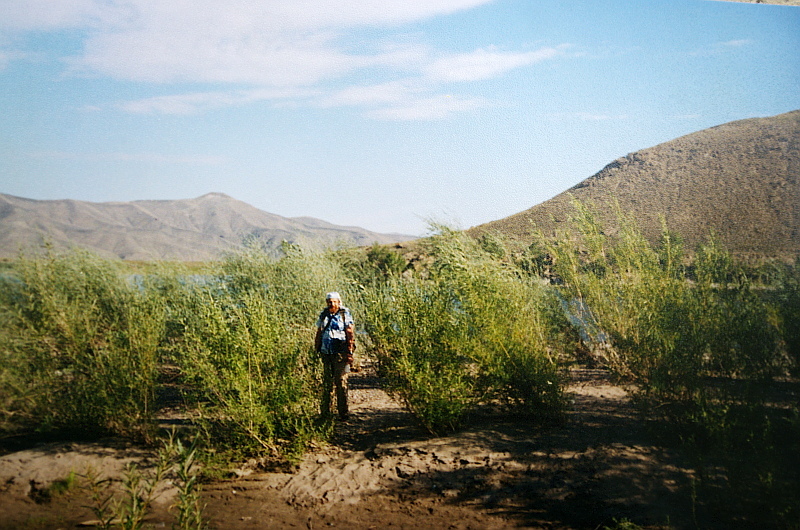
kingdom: Plantae
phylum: Tracheophyta
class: Magnoliopsida
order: Malpighiales
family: Salicaceae
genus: Salix
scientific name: Salix ledebouriana
